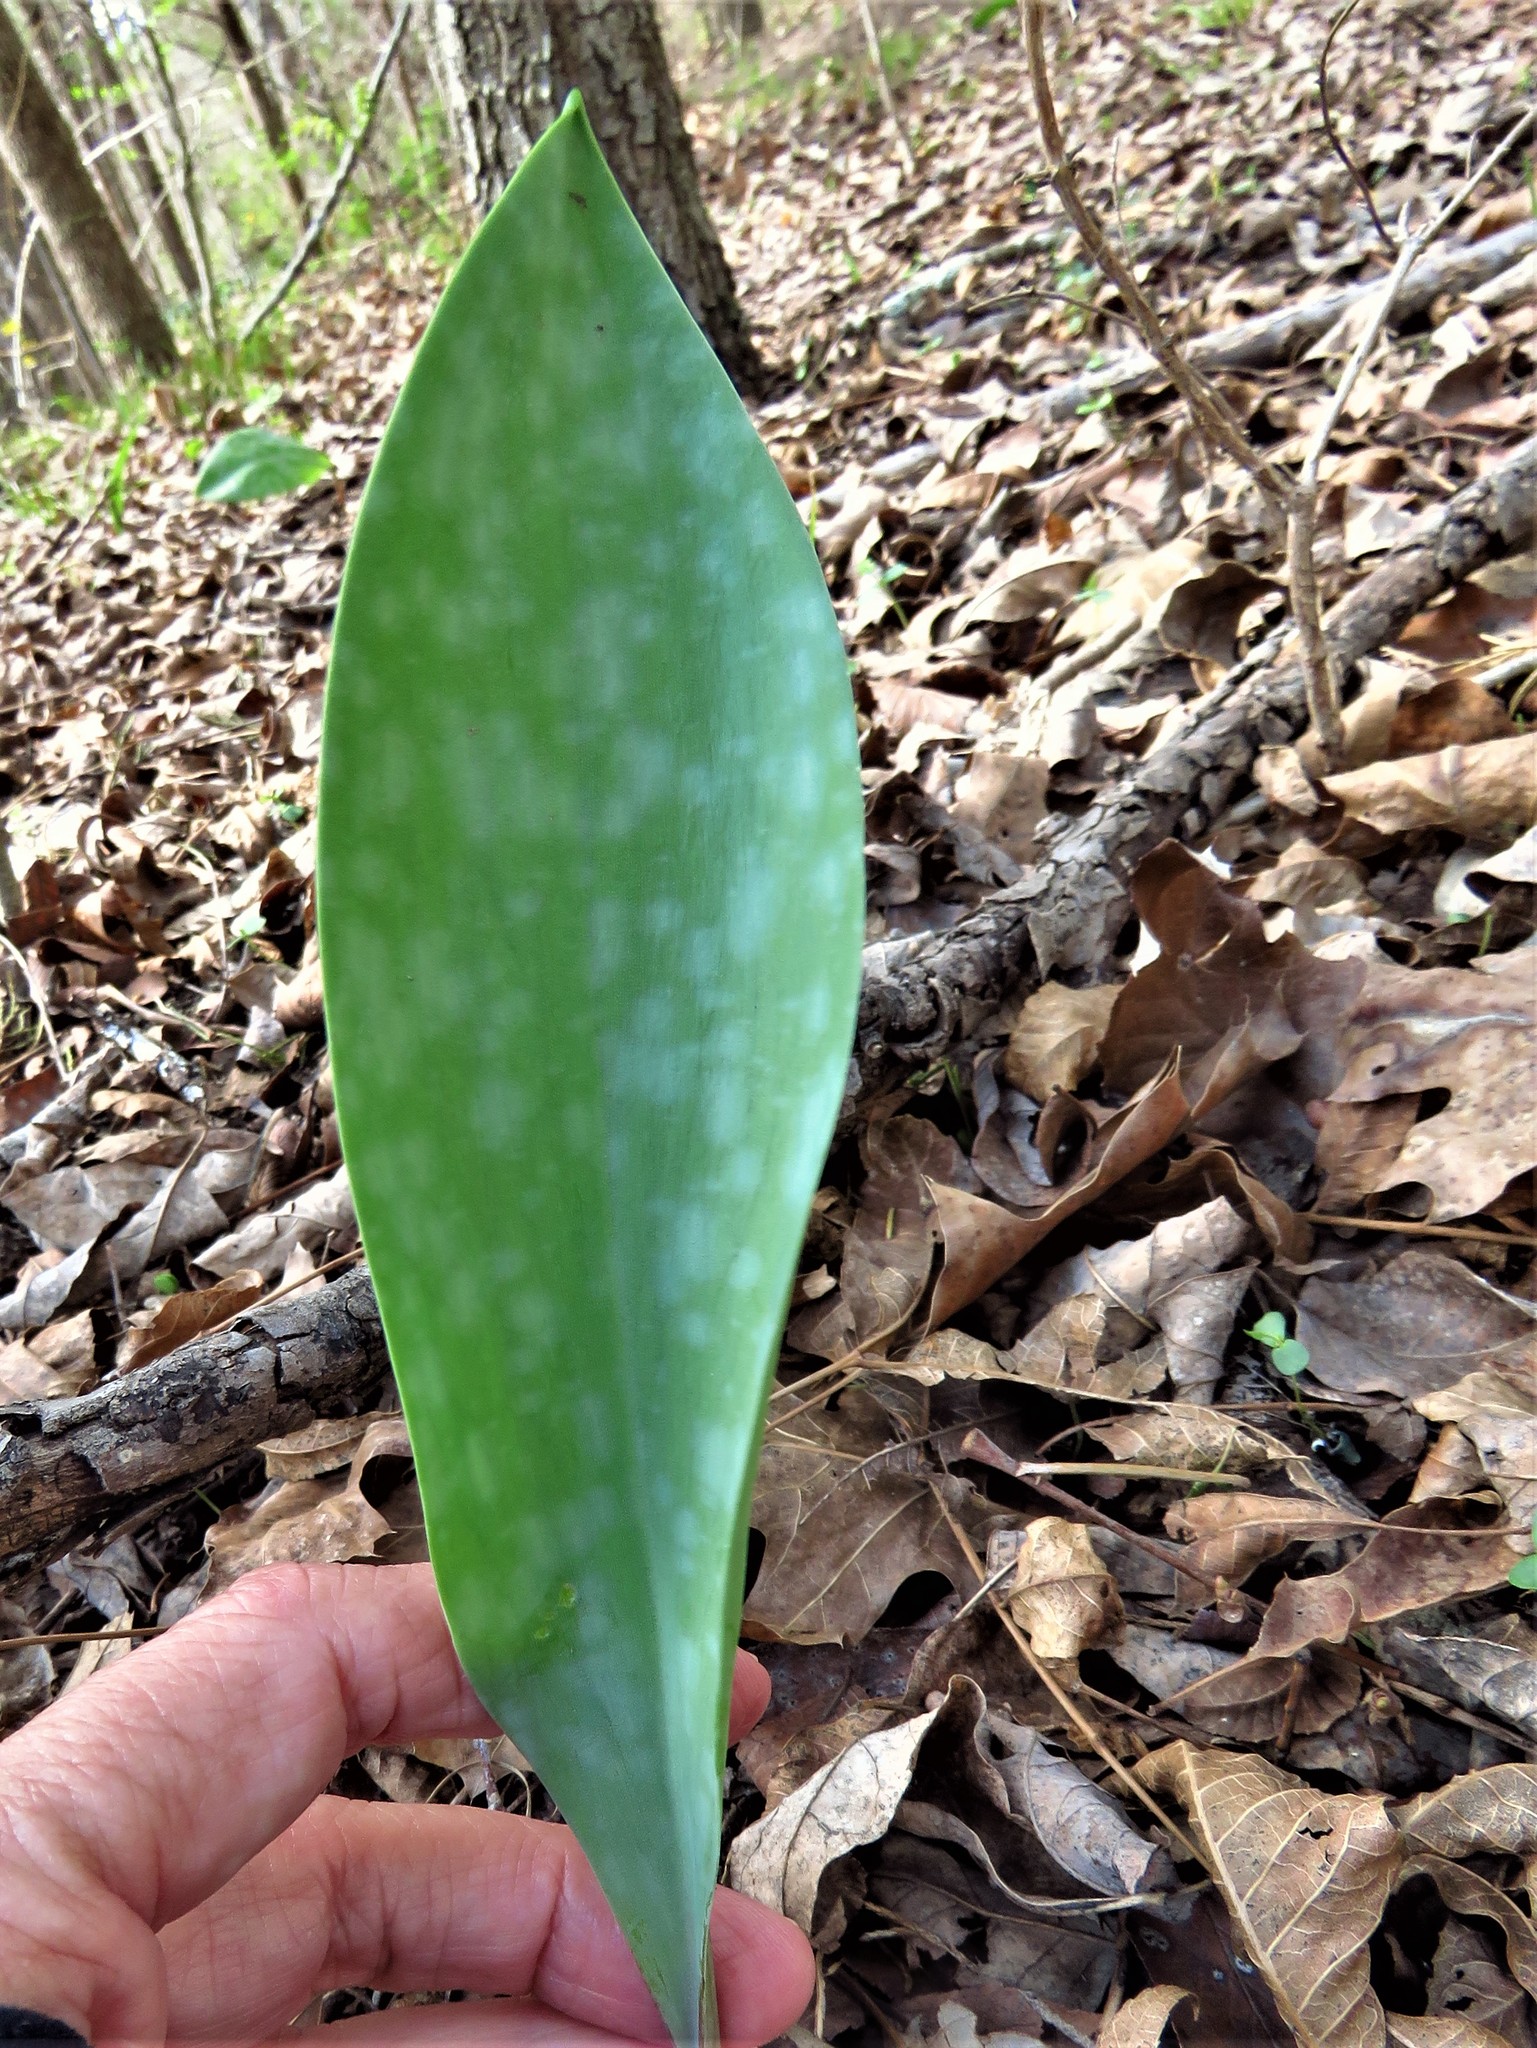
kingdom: Plantae
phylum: Tracheophyta
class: Liliopsida
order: Liliales
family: Liliaceae
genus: Erythronium
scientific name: Erythronium albidum
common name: White trout-lily
